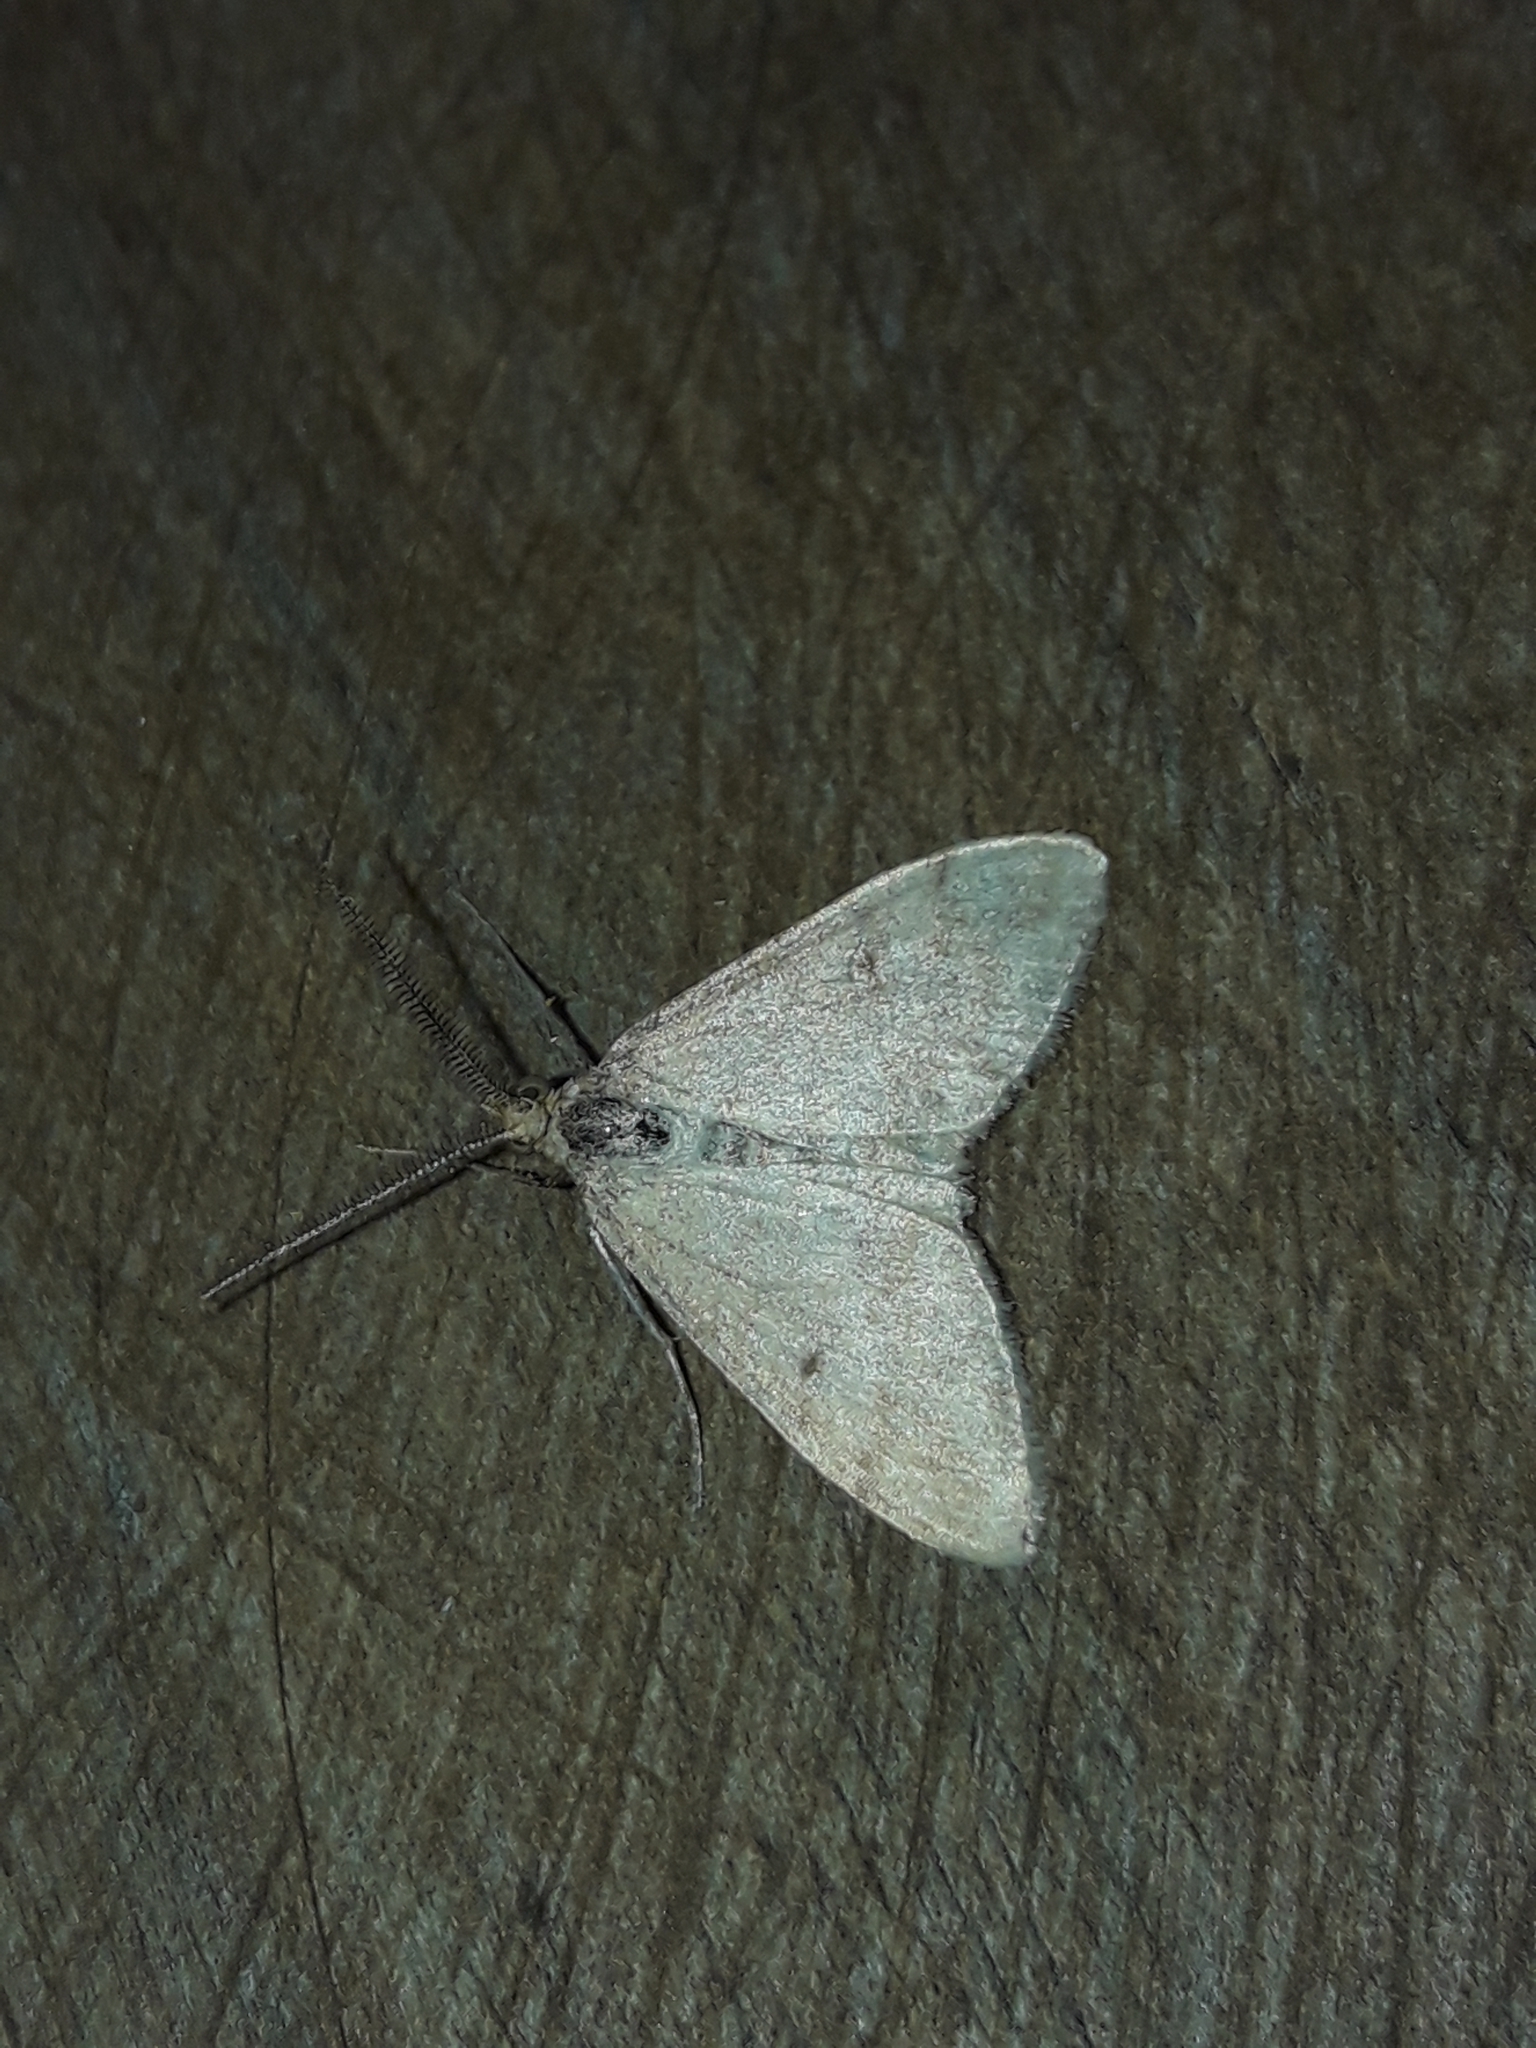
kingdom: Animalia
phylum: Arthropoda
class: Insecta
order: Lepidoptera
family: Geometridae
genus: Scopula
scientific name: Scopula rubraria
